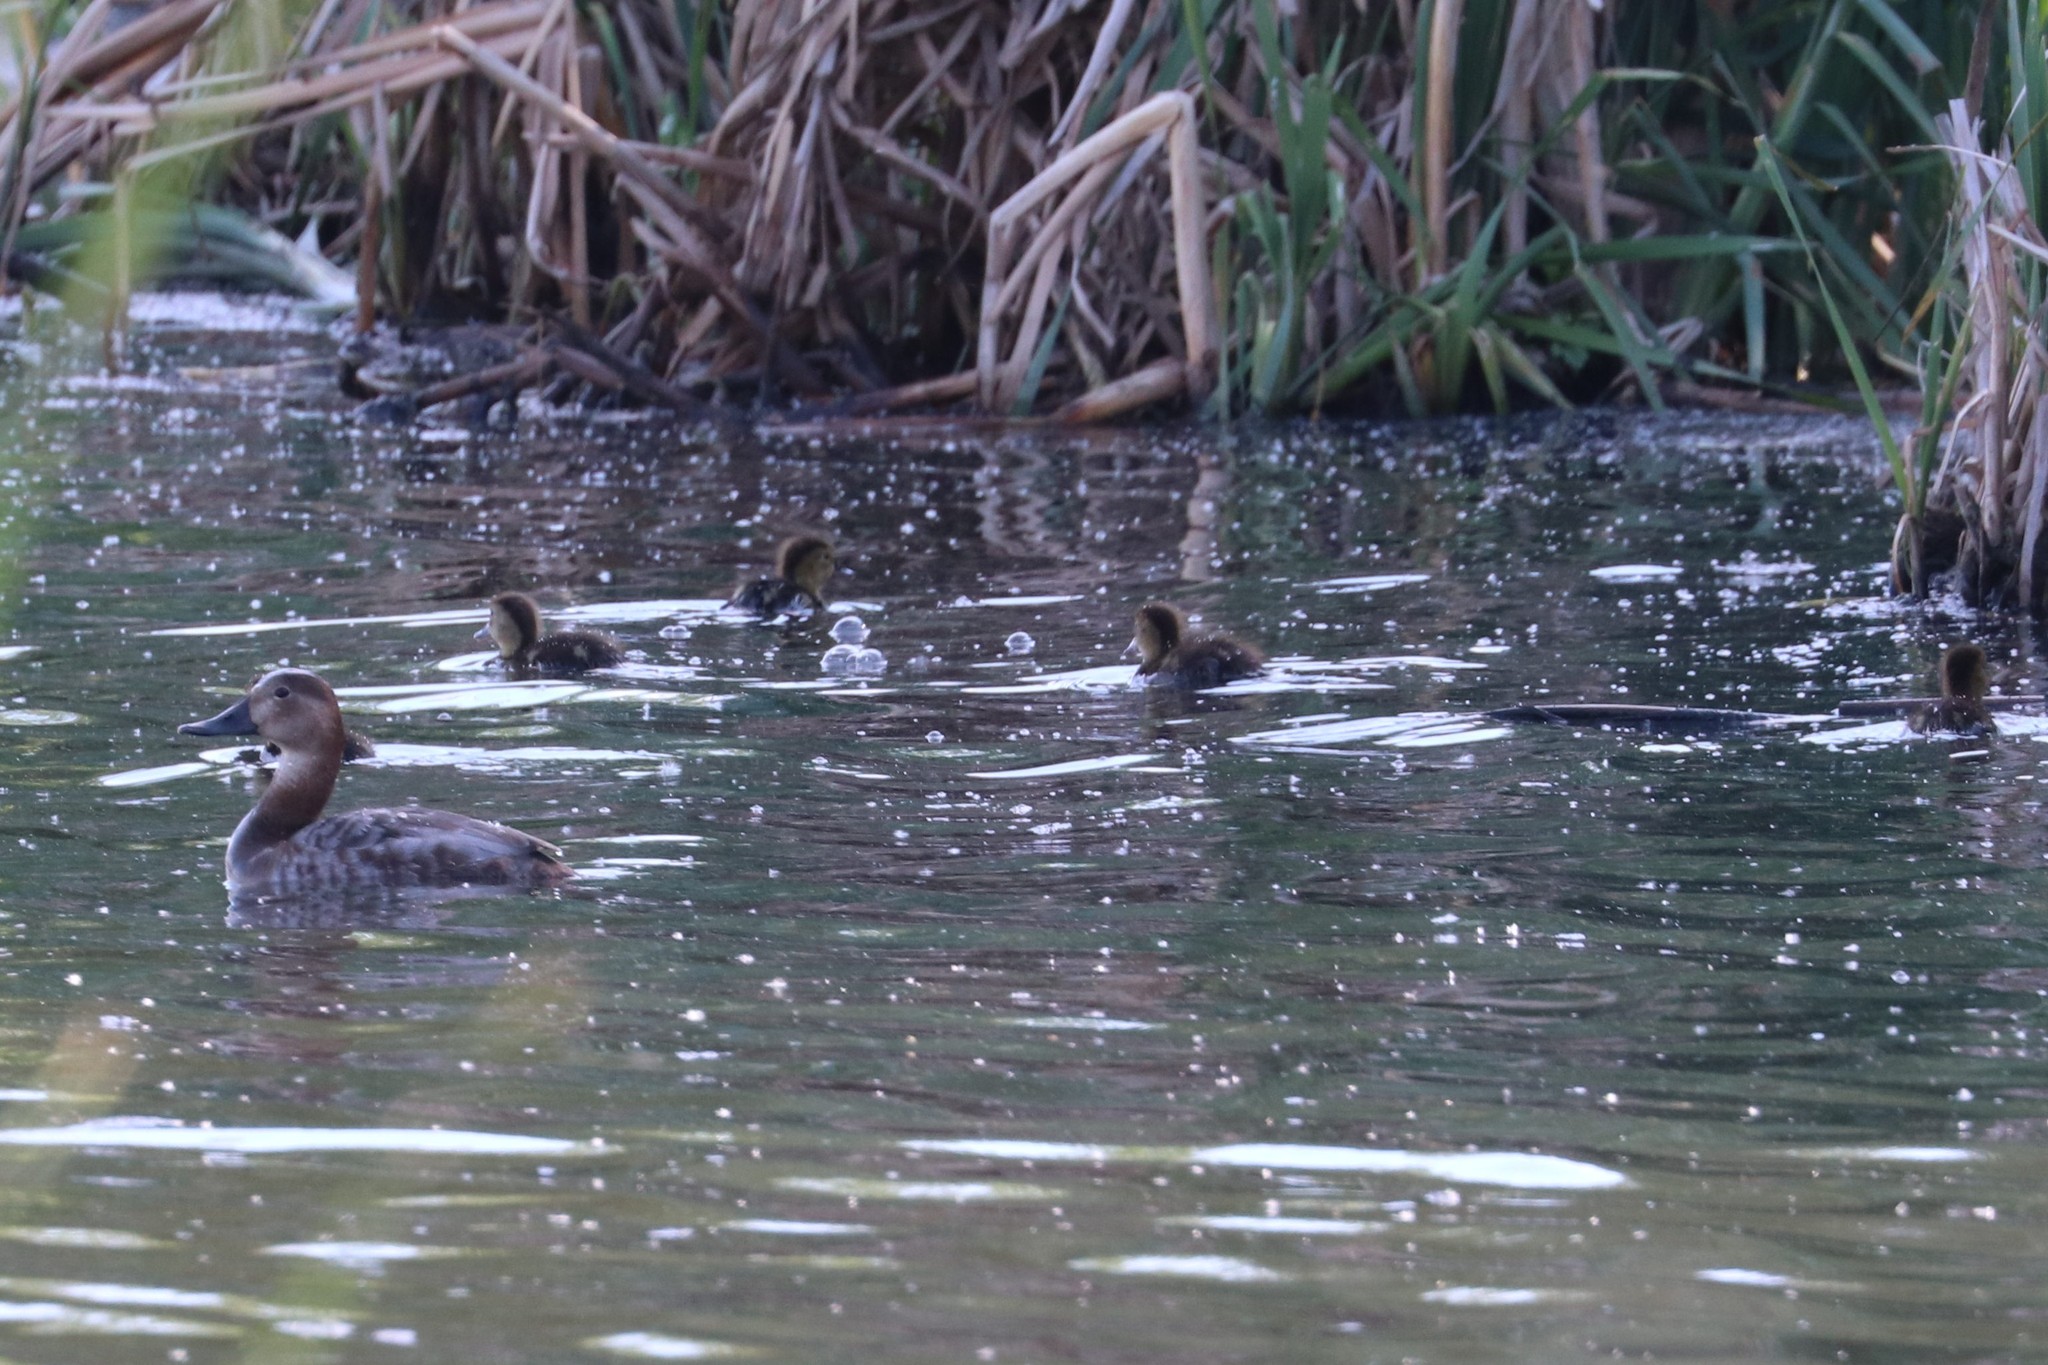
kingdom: Animalia
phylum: Chordata
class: Aves
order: Anseriformes
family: Anatidae
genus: Aythya
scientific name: Aythya ferina
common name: Common pochard
